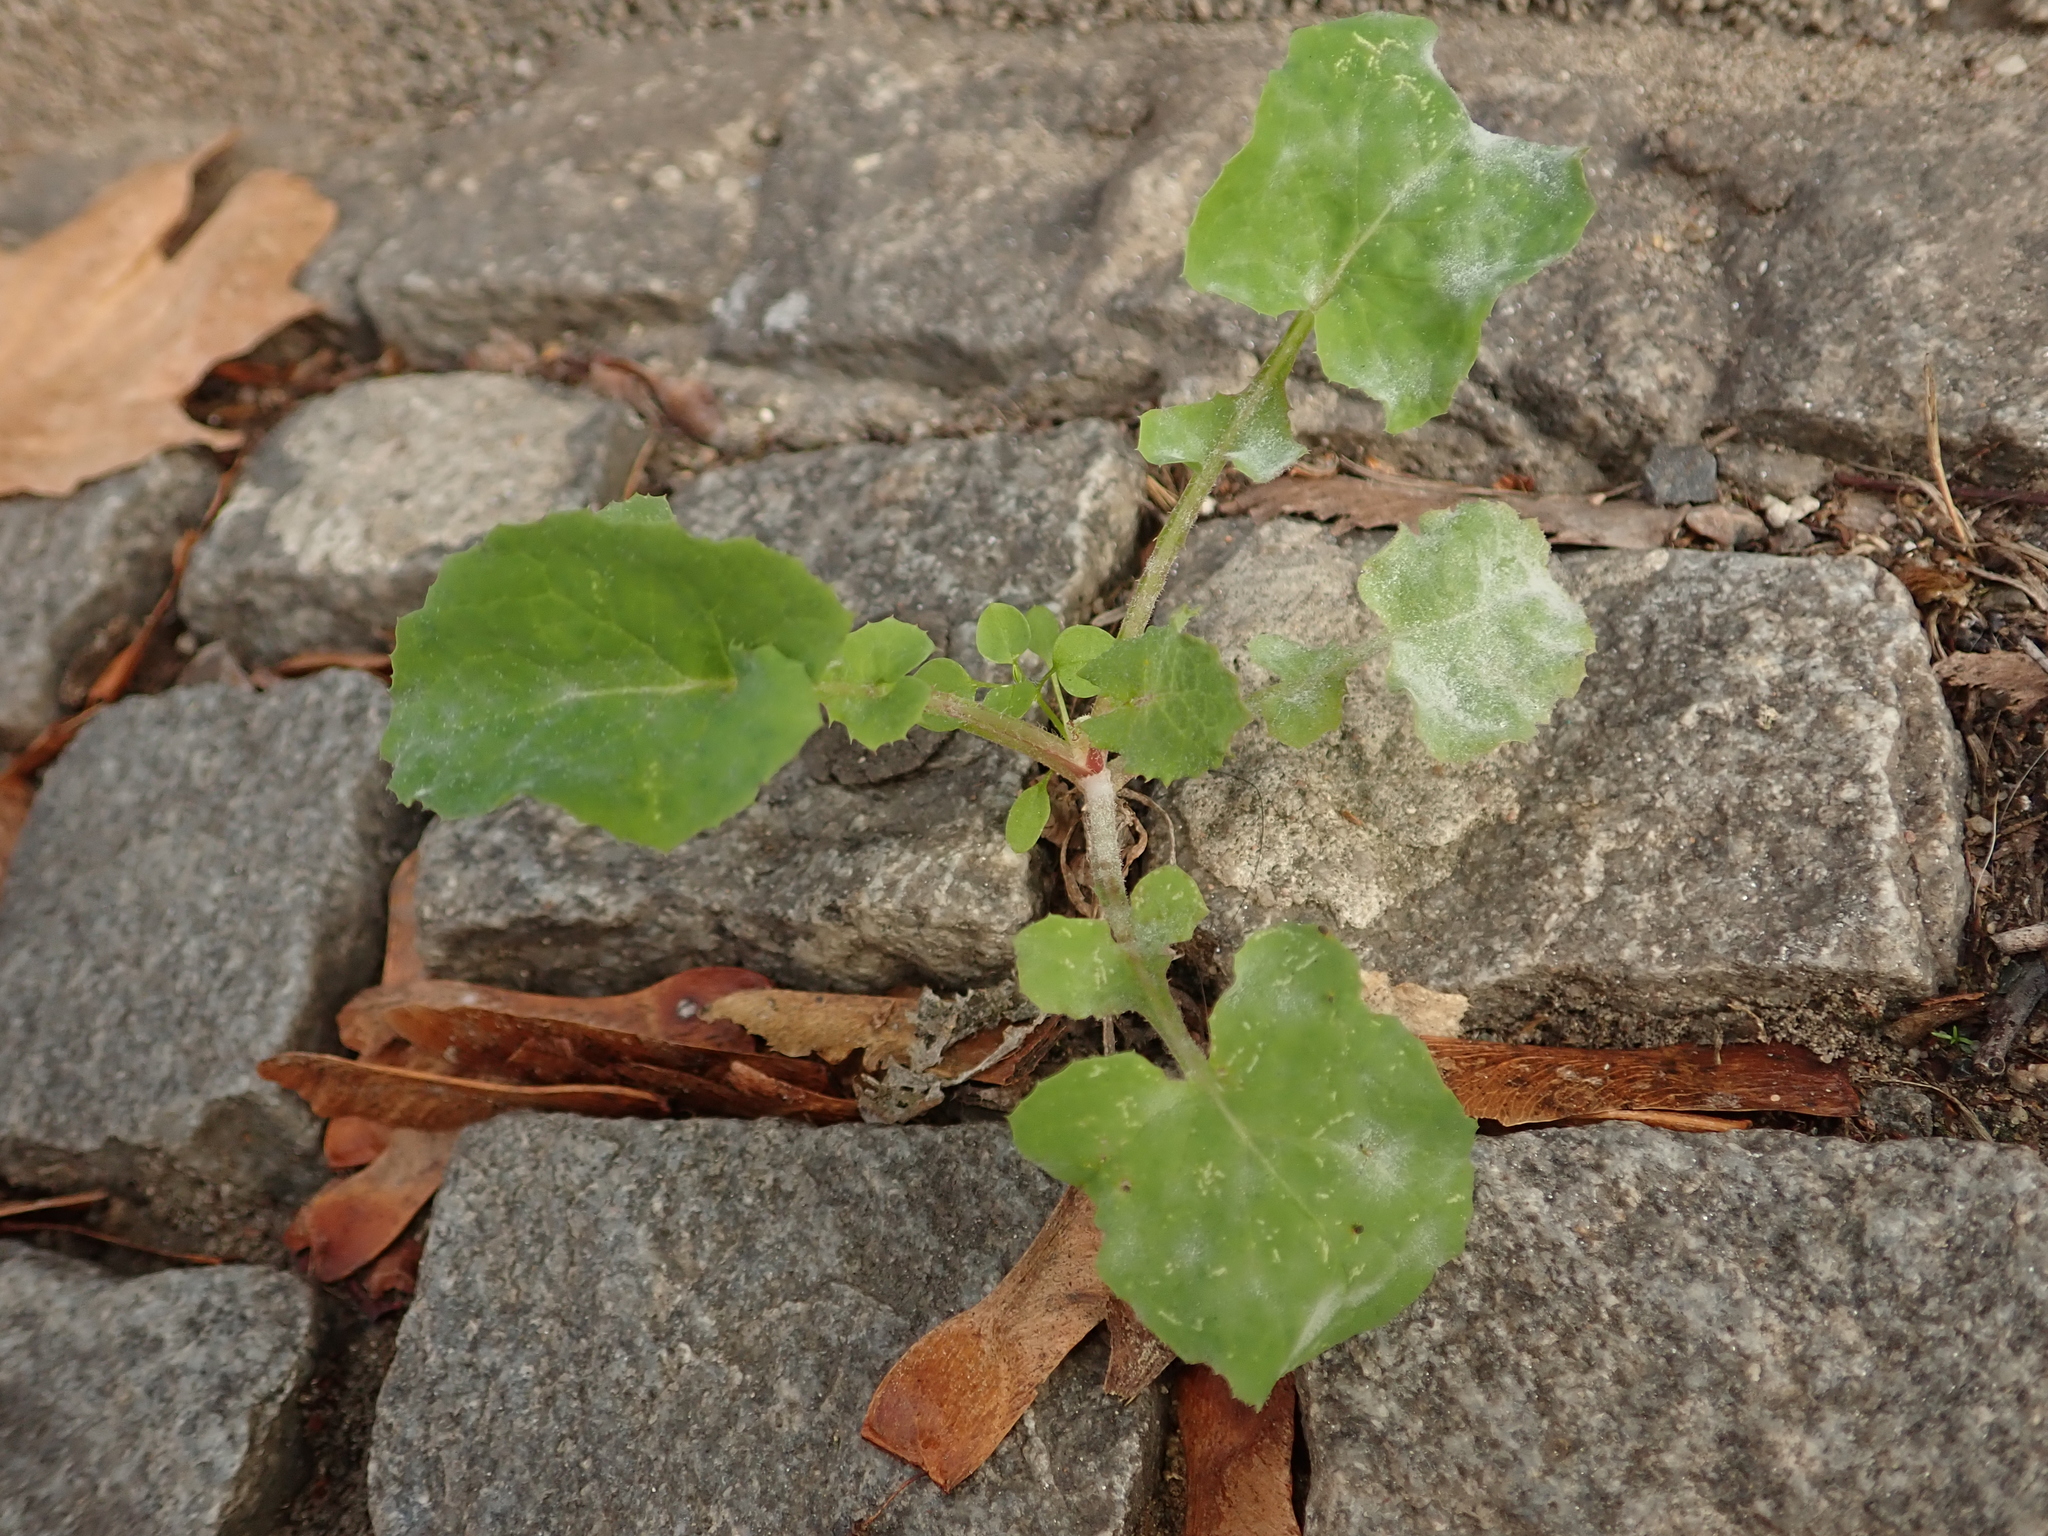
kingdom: Plantae
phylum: Tracheophyta
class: Magnoliopsida
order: Asterales
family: Asteraceae
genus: Sonchus
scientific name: Sonchus oleraceus
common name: Common sowthistle
